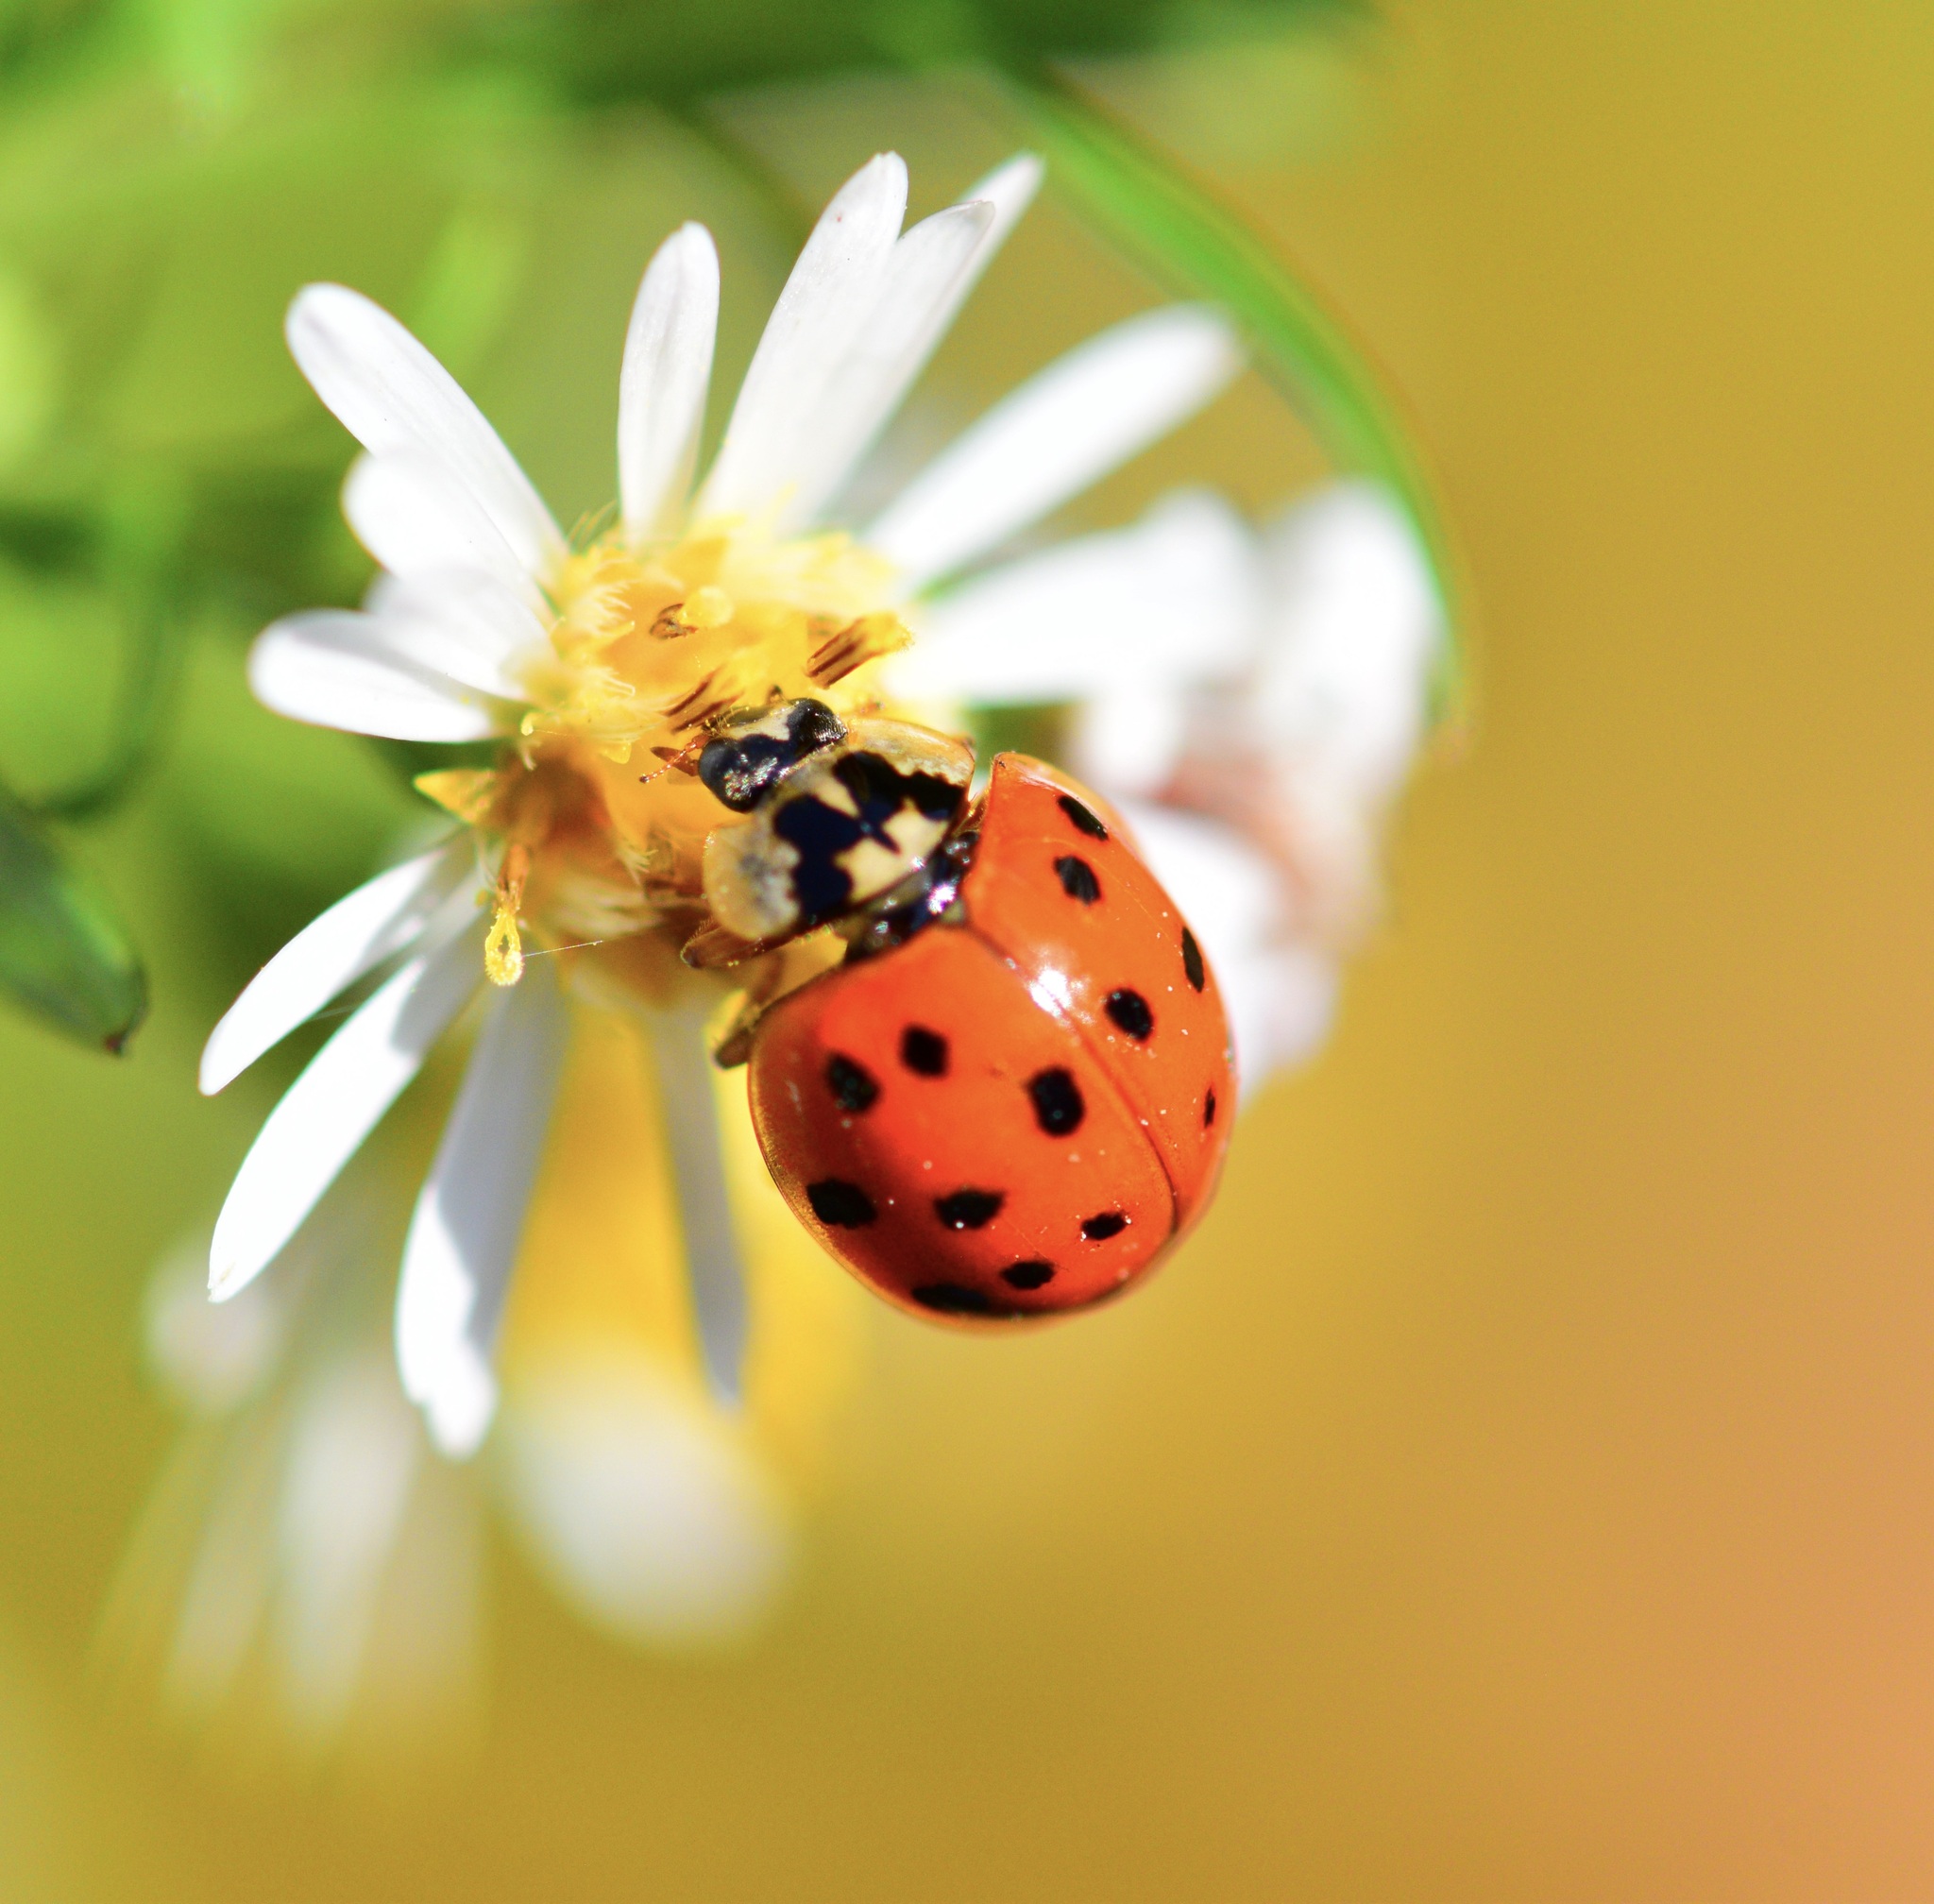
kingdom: Animalia
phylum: Arthropoda
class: Insecta
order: Coleoptera
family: Coccinellidae
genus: Harmonia
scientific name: Harmonia axyridis
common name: Harlequin ladybird
